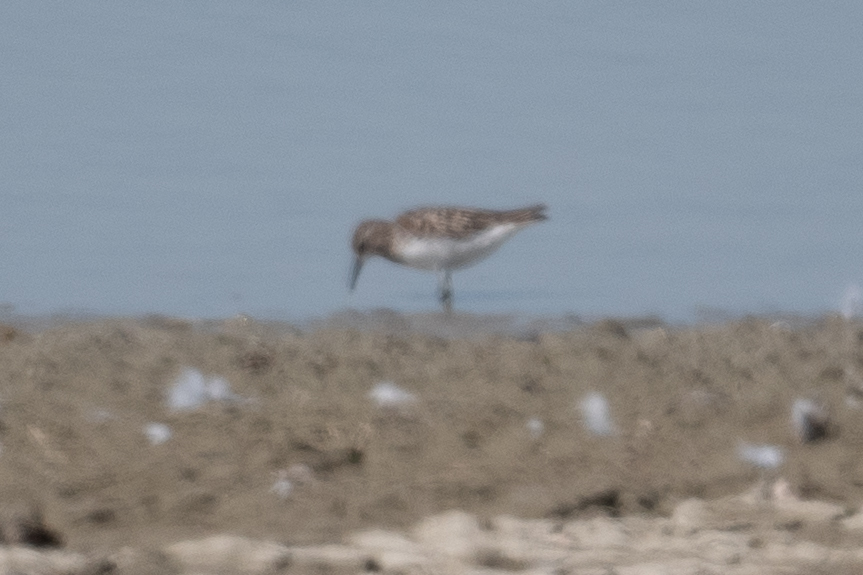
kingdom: Animalia
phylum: Chordata
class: Aves
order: Charadriiformes
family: Scolopacidae
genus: Calidris
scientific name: Calidris minutilla
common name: Least sandpiper
